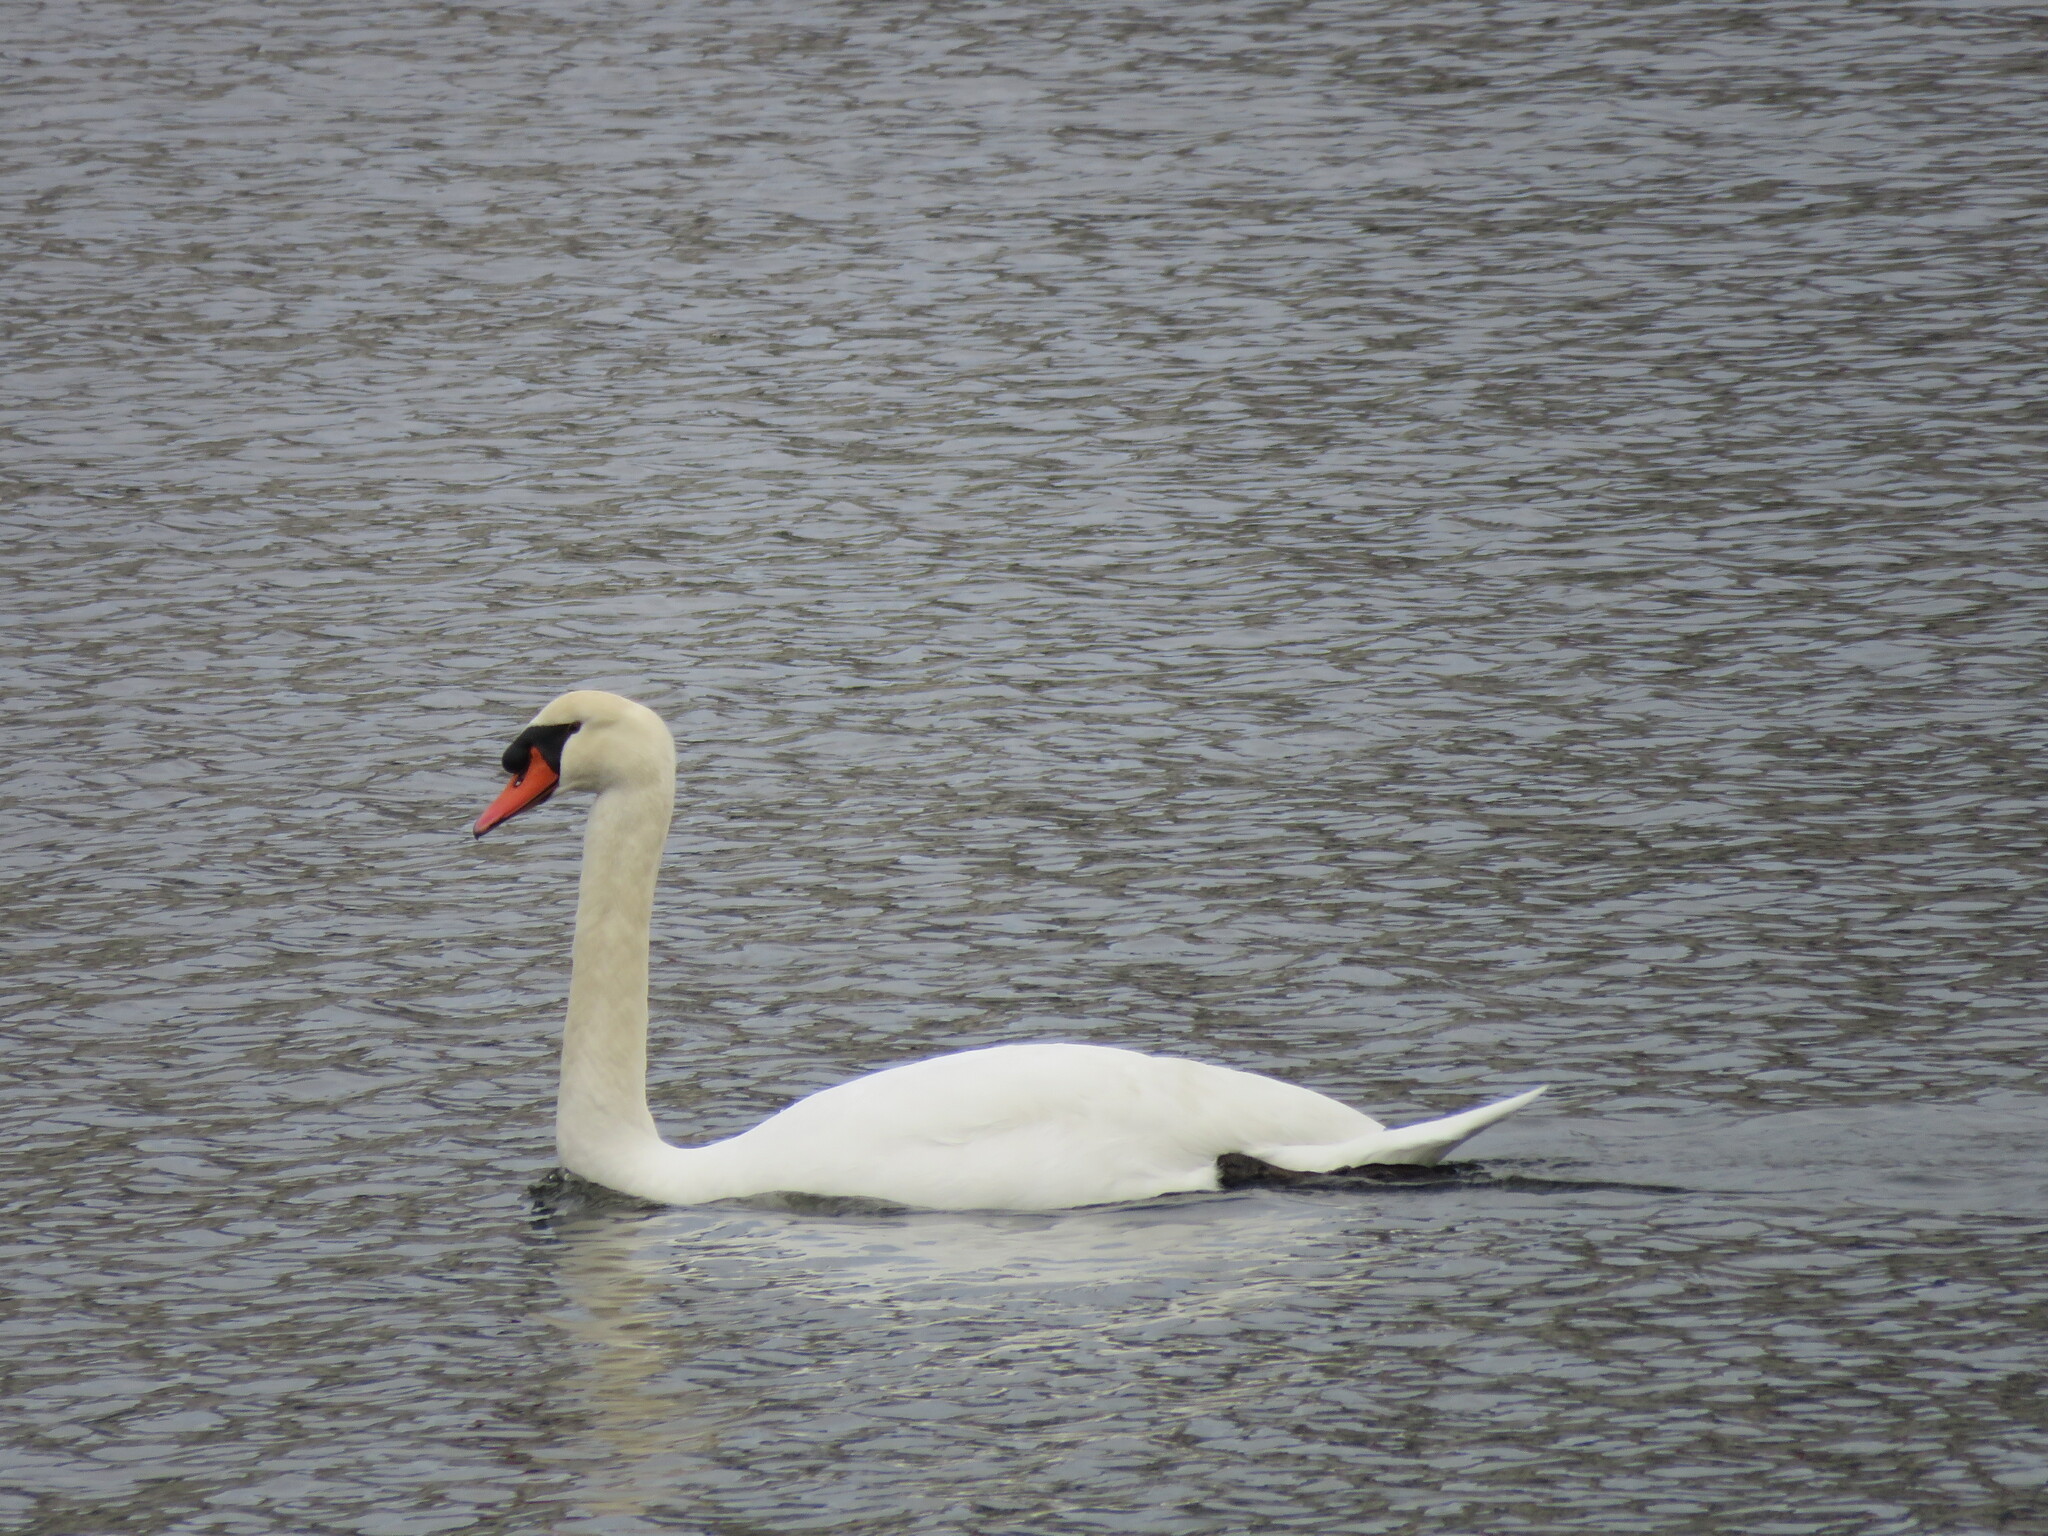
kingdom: Animalia
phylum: Chordata
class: Aves
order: Anseriformes
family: Anatidae
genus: Cygnus
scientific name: Cygnus olor
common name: Mute swan
